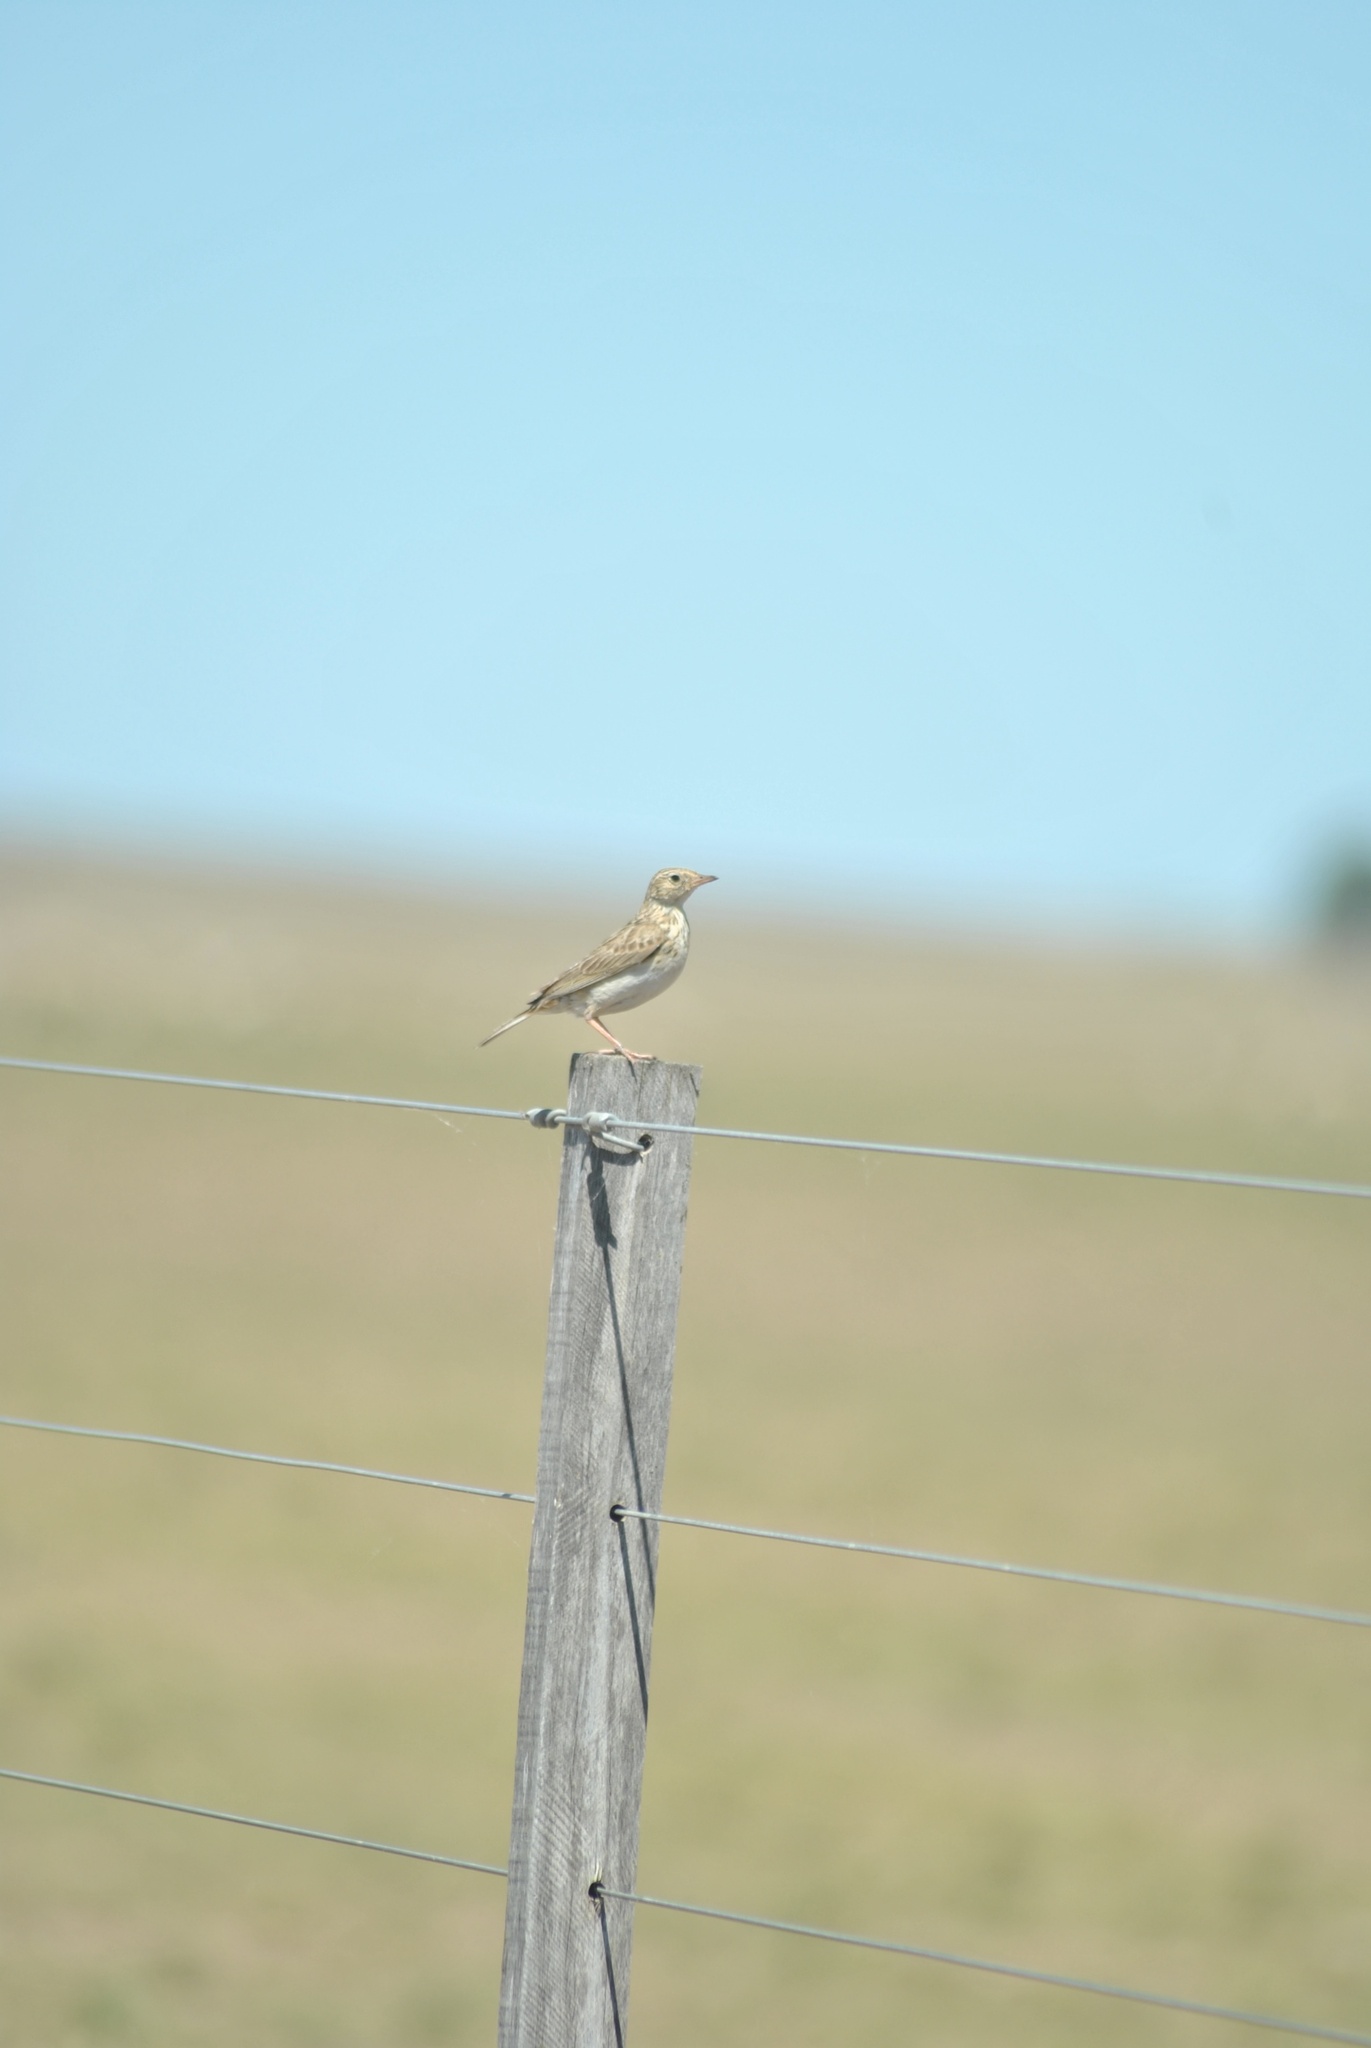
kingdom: Animalia
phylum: Chordata
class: Aves
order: Passeriformes
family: Motacillidae
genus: Anthus
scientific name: Anthus furcatus
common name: Short-billed pipit
